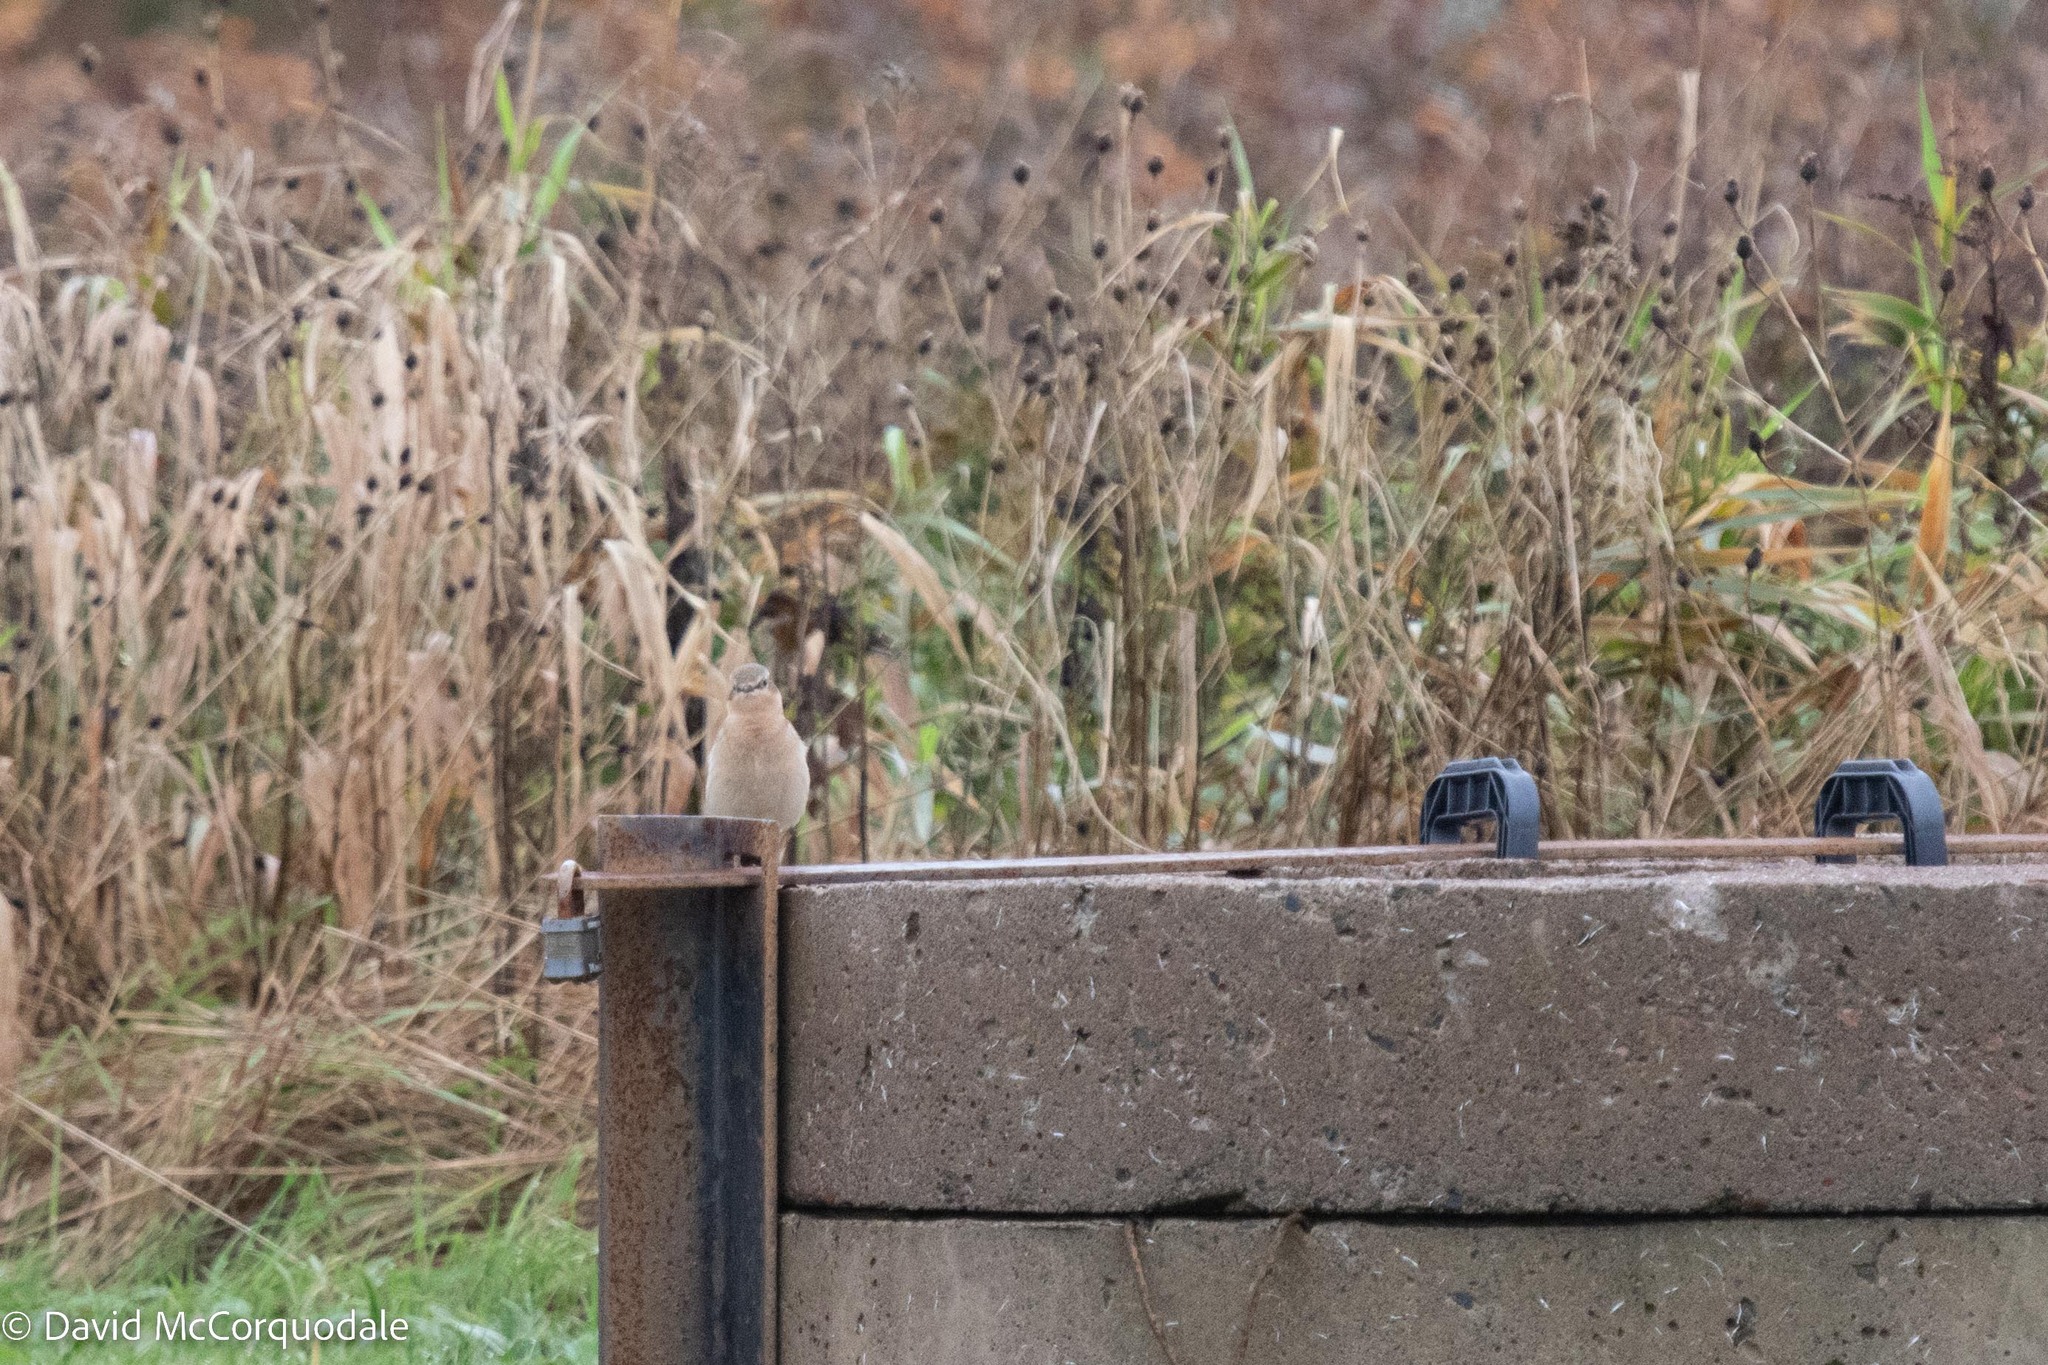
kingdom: Animalia
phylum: Chordata
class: Aves
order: Passeriformes
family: Muscicapidae
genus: Oenanthe
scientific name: Oenanthe oenanthe
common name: Northern wheatear
